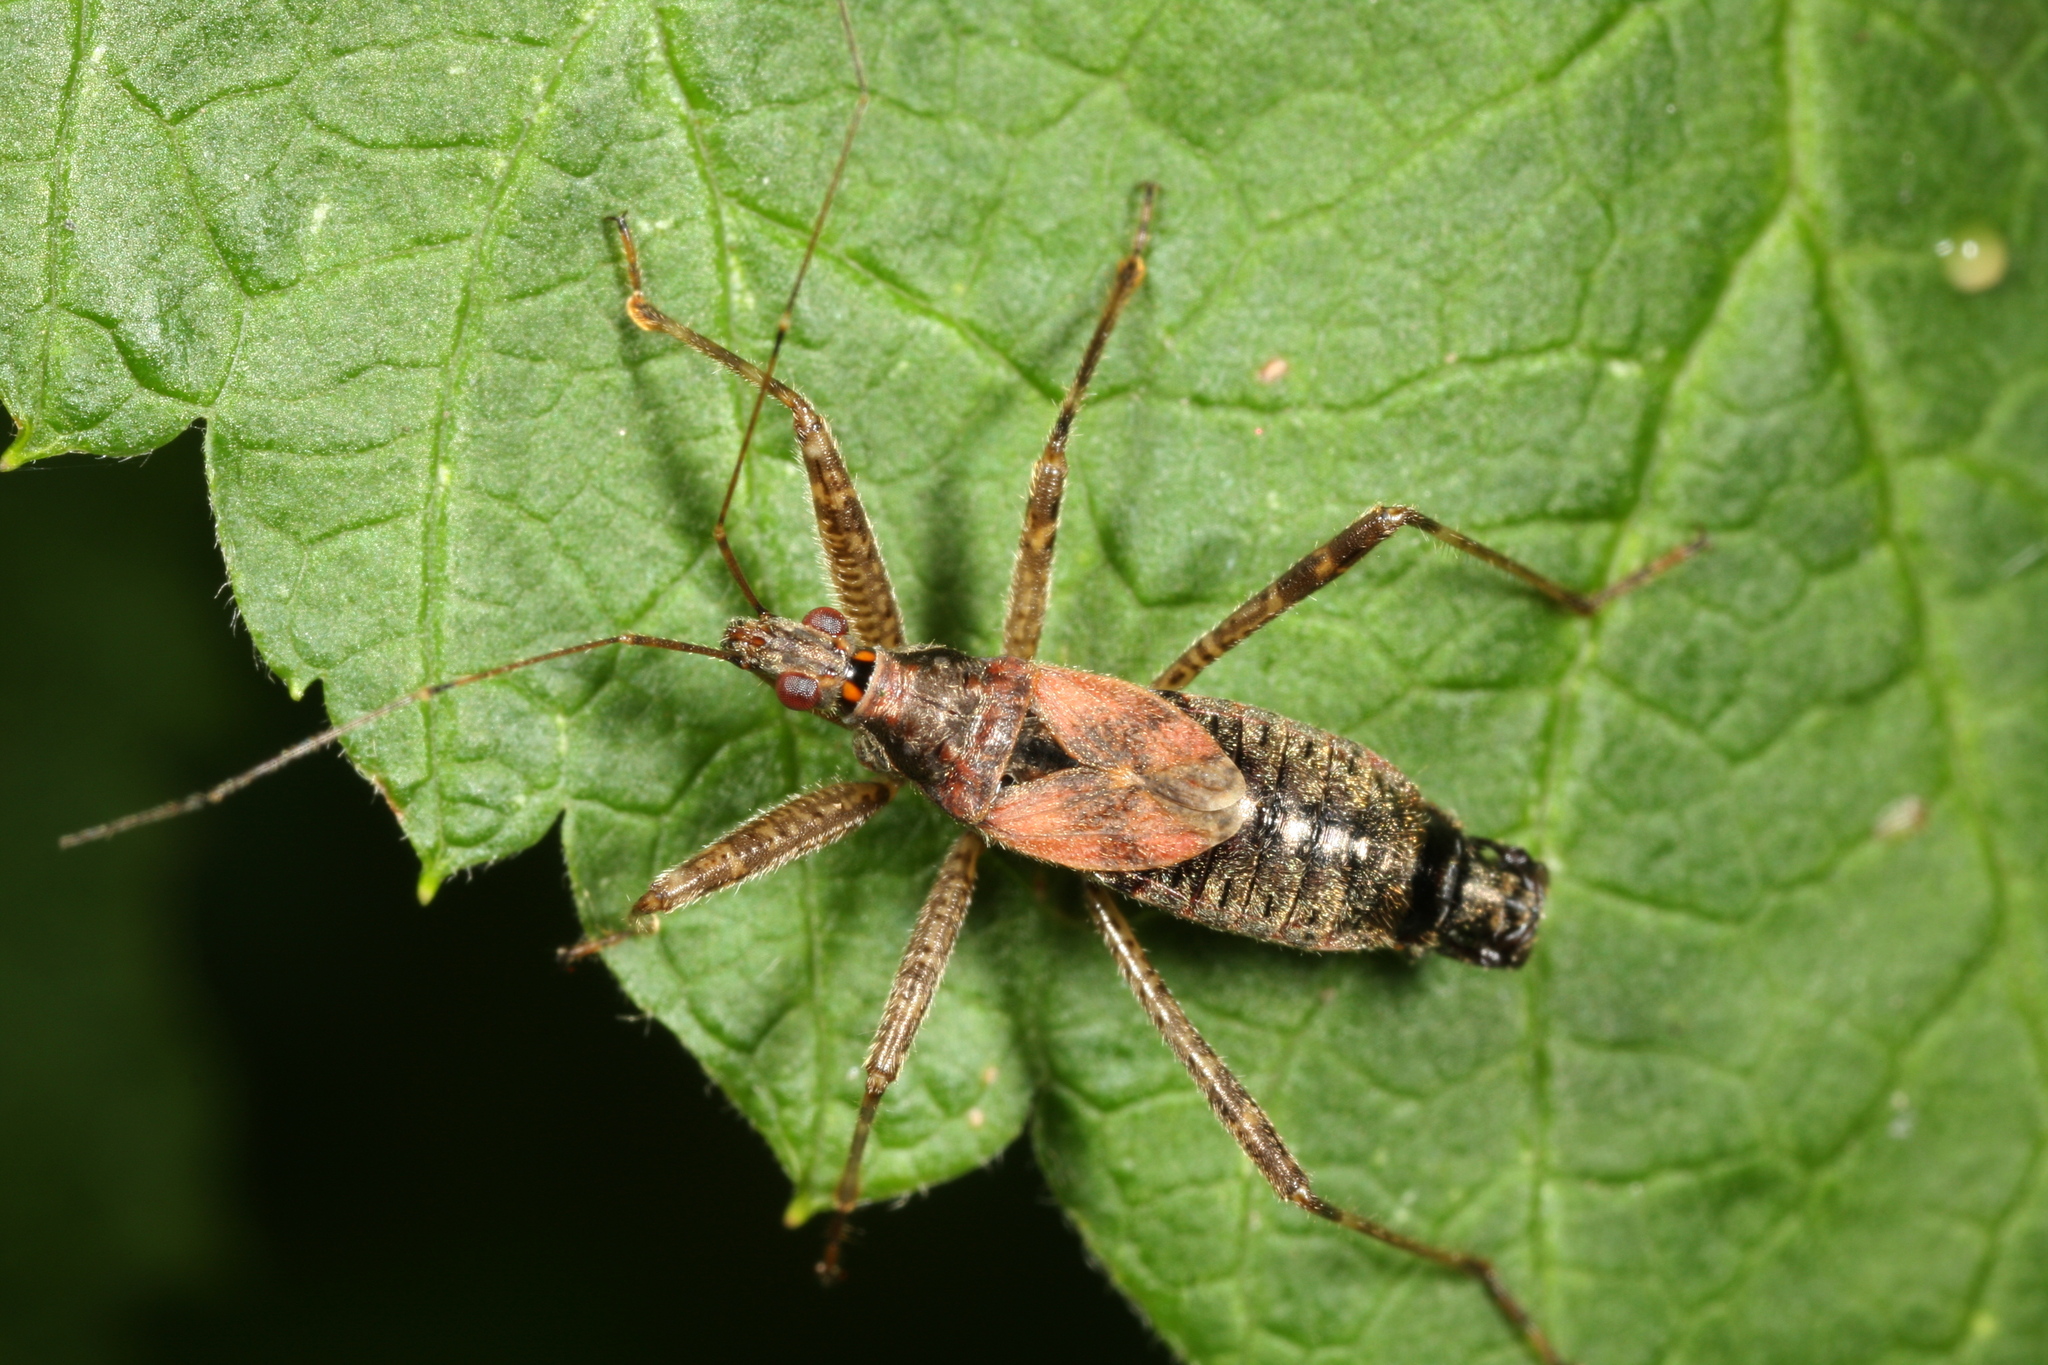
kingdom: Animalia
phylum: Arthropoda
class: Insecta
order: Hemiptera
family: Nabidae
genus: Himacerus
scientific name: Himacerus apterus
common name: Tree damsel bug
